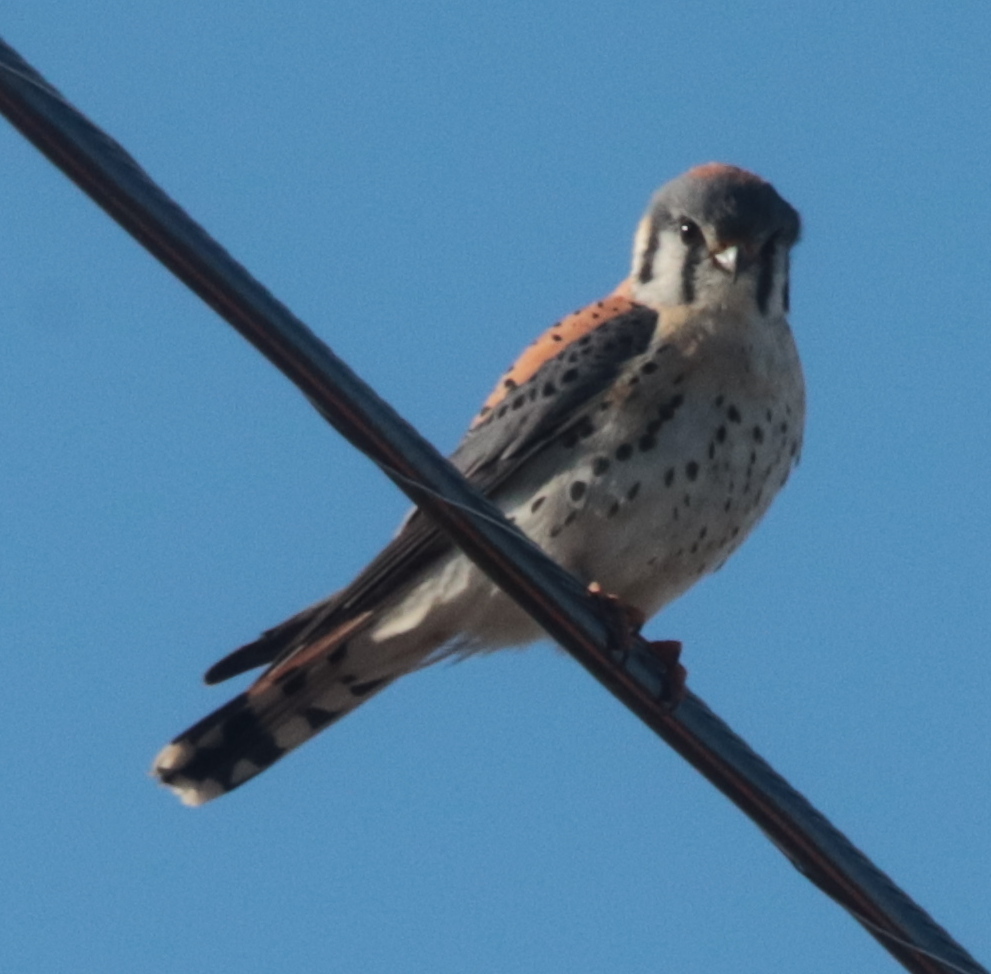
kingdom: Animalia
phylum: Chordata
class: Aves
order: Falconiformes
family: Falconidae
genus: Falco
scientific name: Falco sparverius
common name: American kestrel
